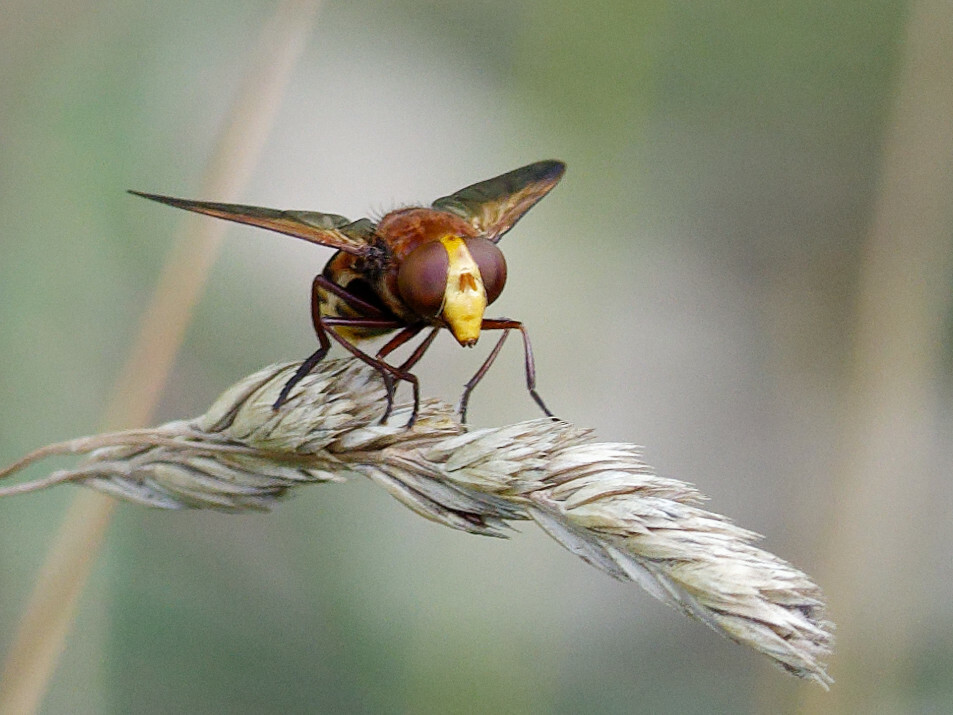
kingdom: Animalia
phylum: Arthropoda
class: Insecta
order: Diptera
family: Syrphidae
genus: Volucella
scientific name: Volucella zonaria
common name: Hornet hoverfly
